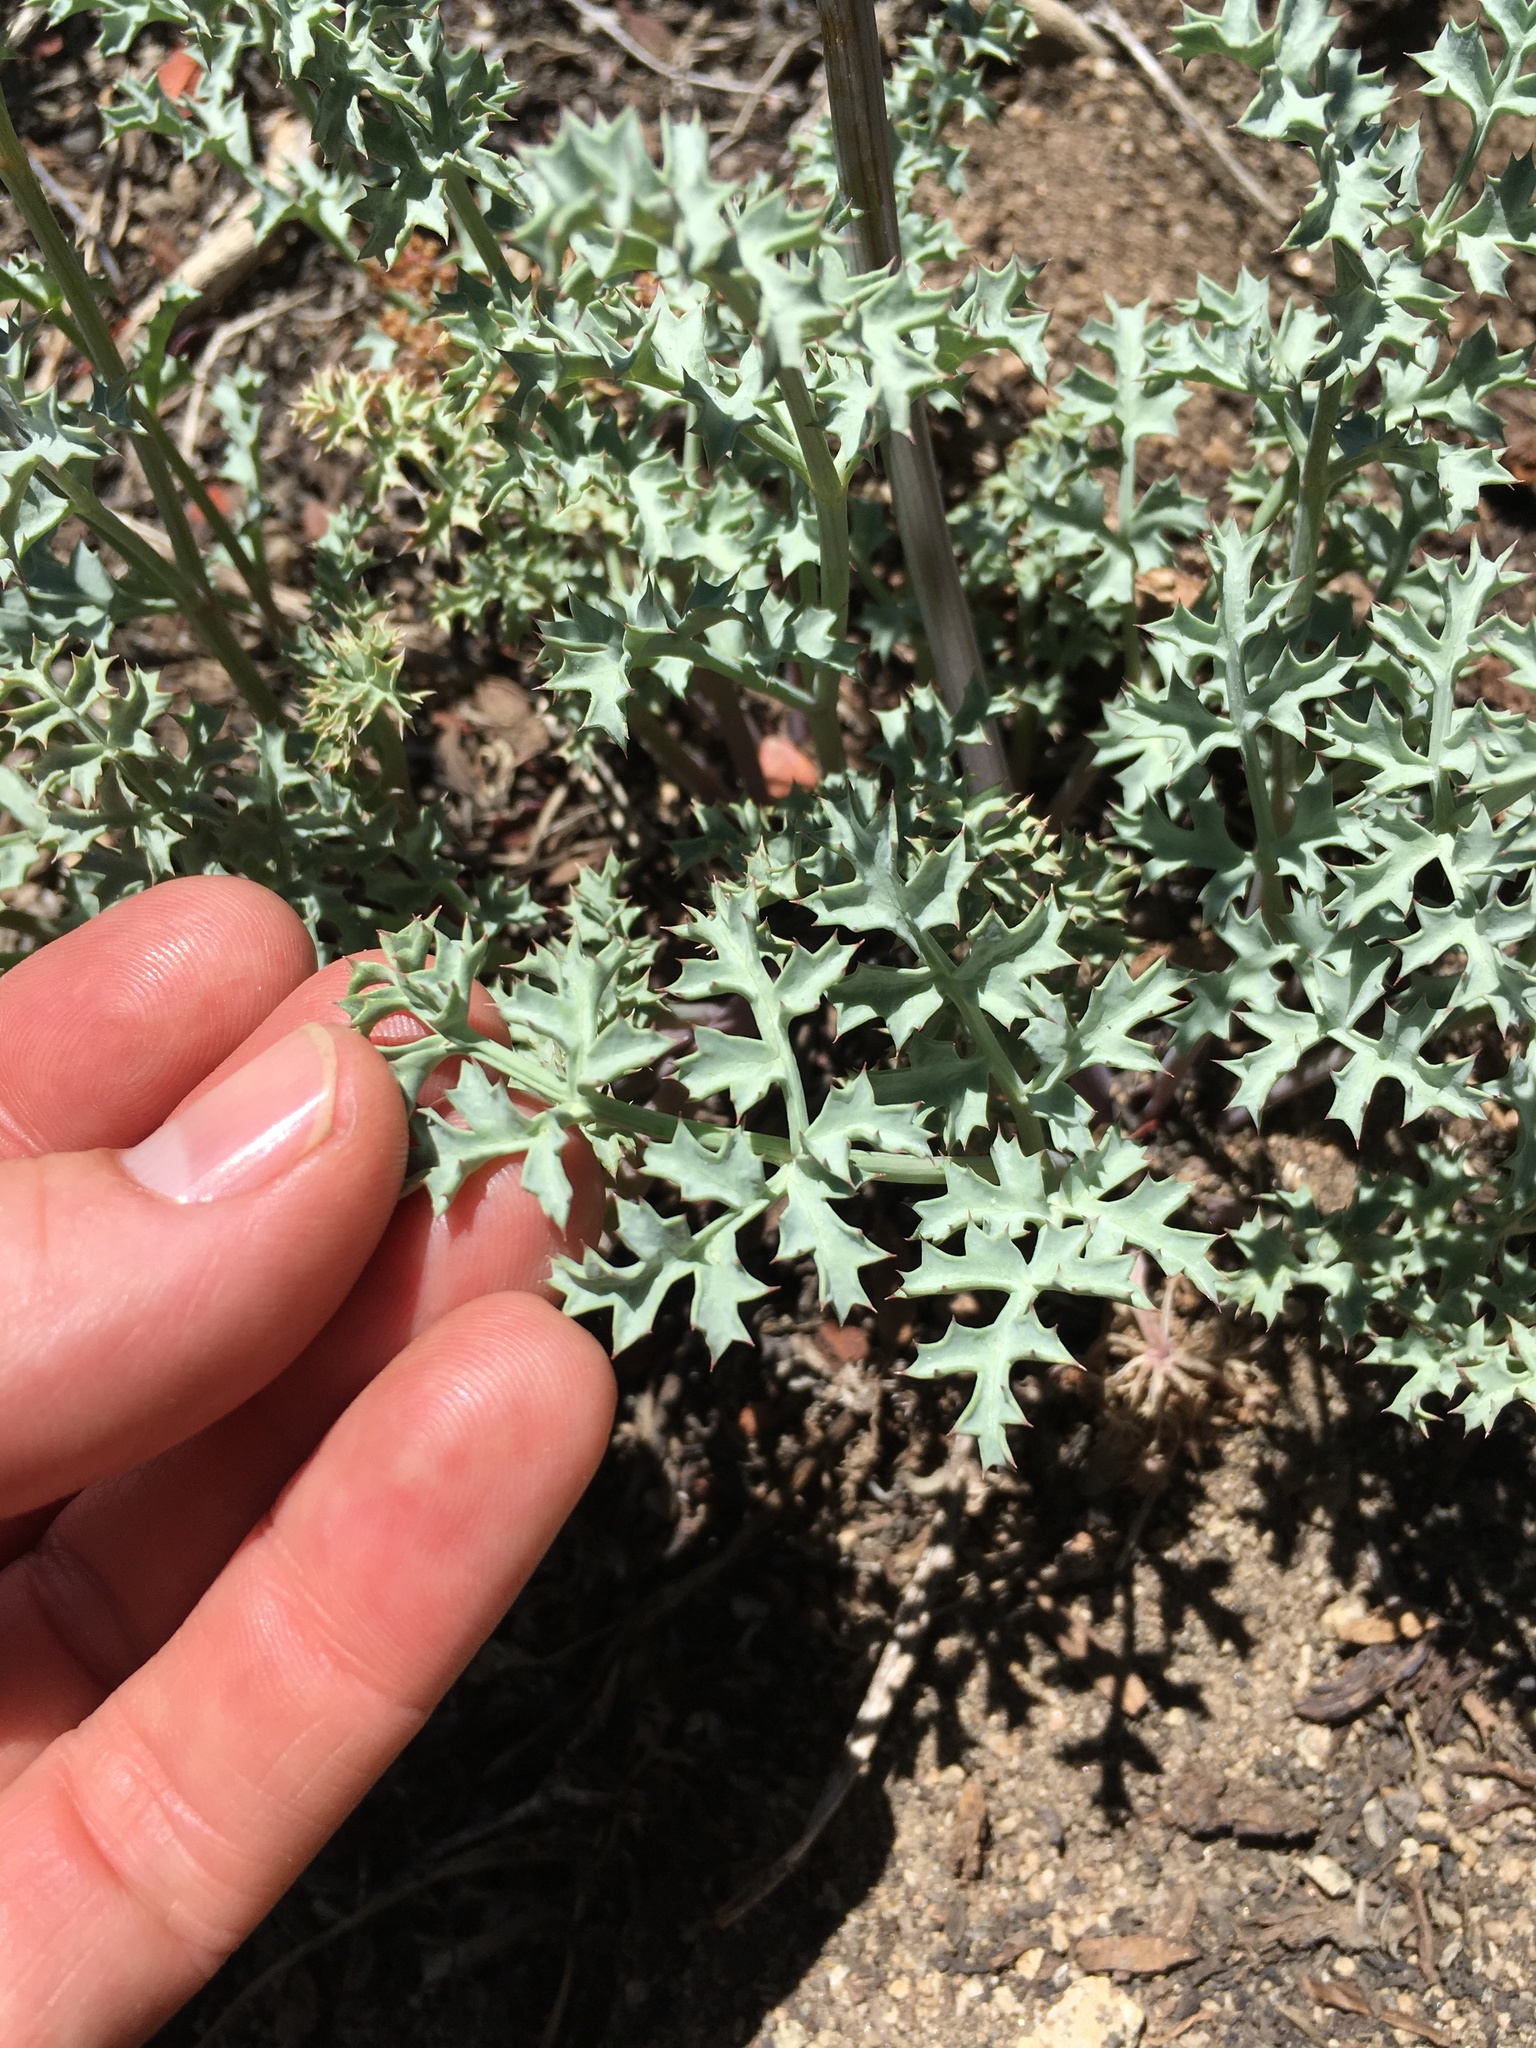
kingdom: Plantae
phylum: Tracheophyta
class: Magnoliopsida
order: Apiales
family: Apiaceae
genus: Lomatium
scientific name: Lomatium rigidum
